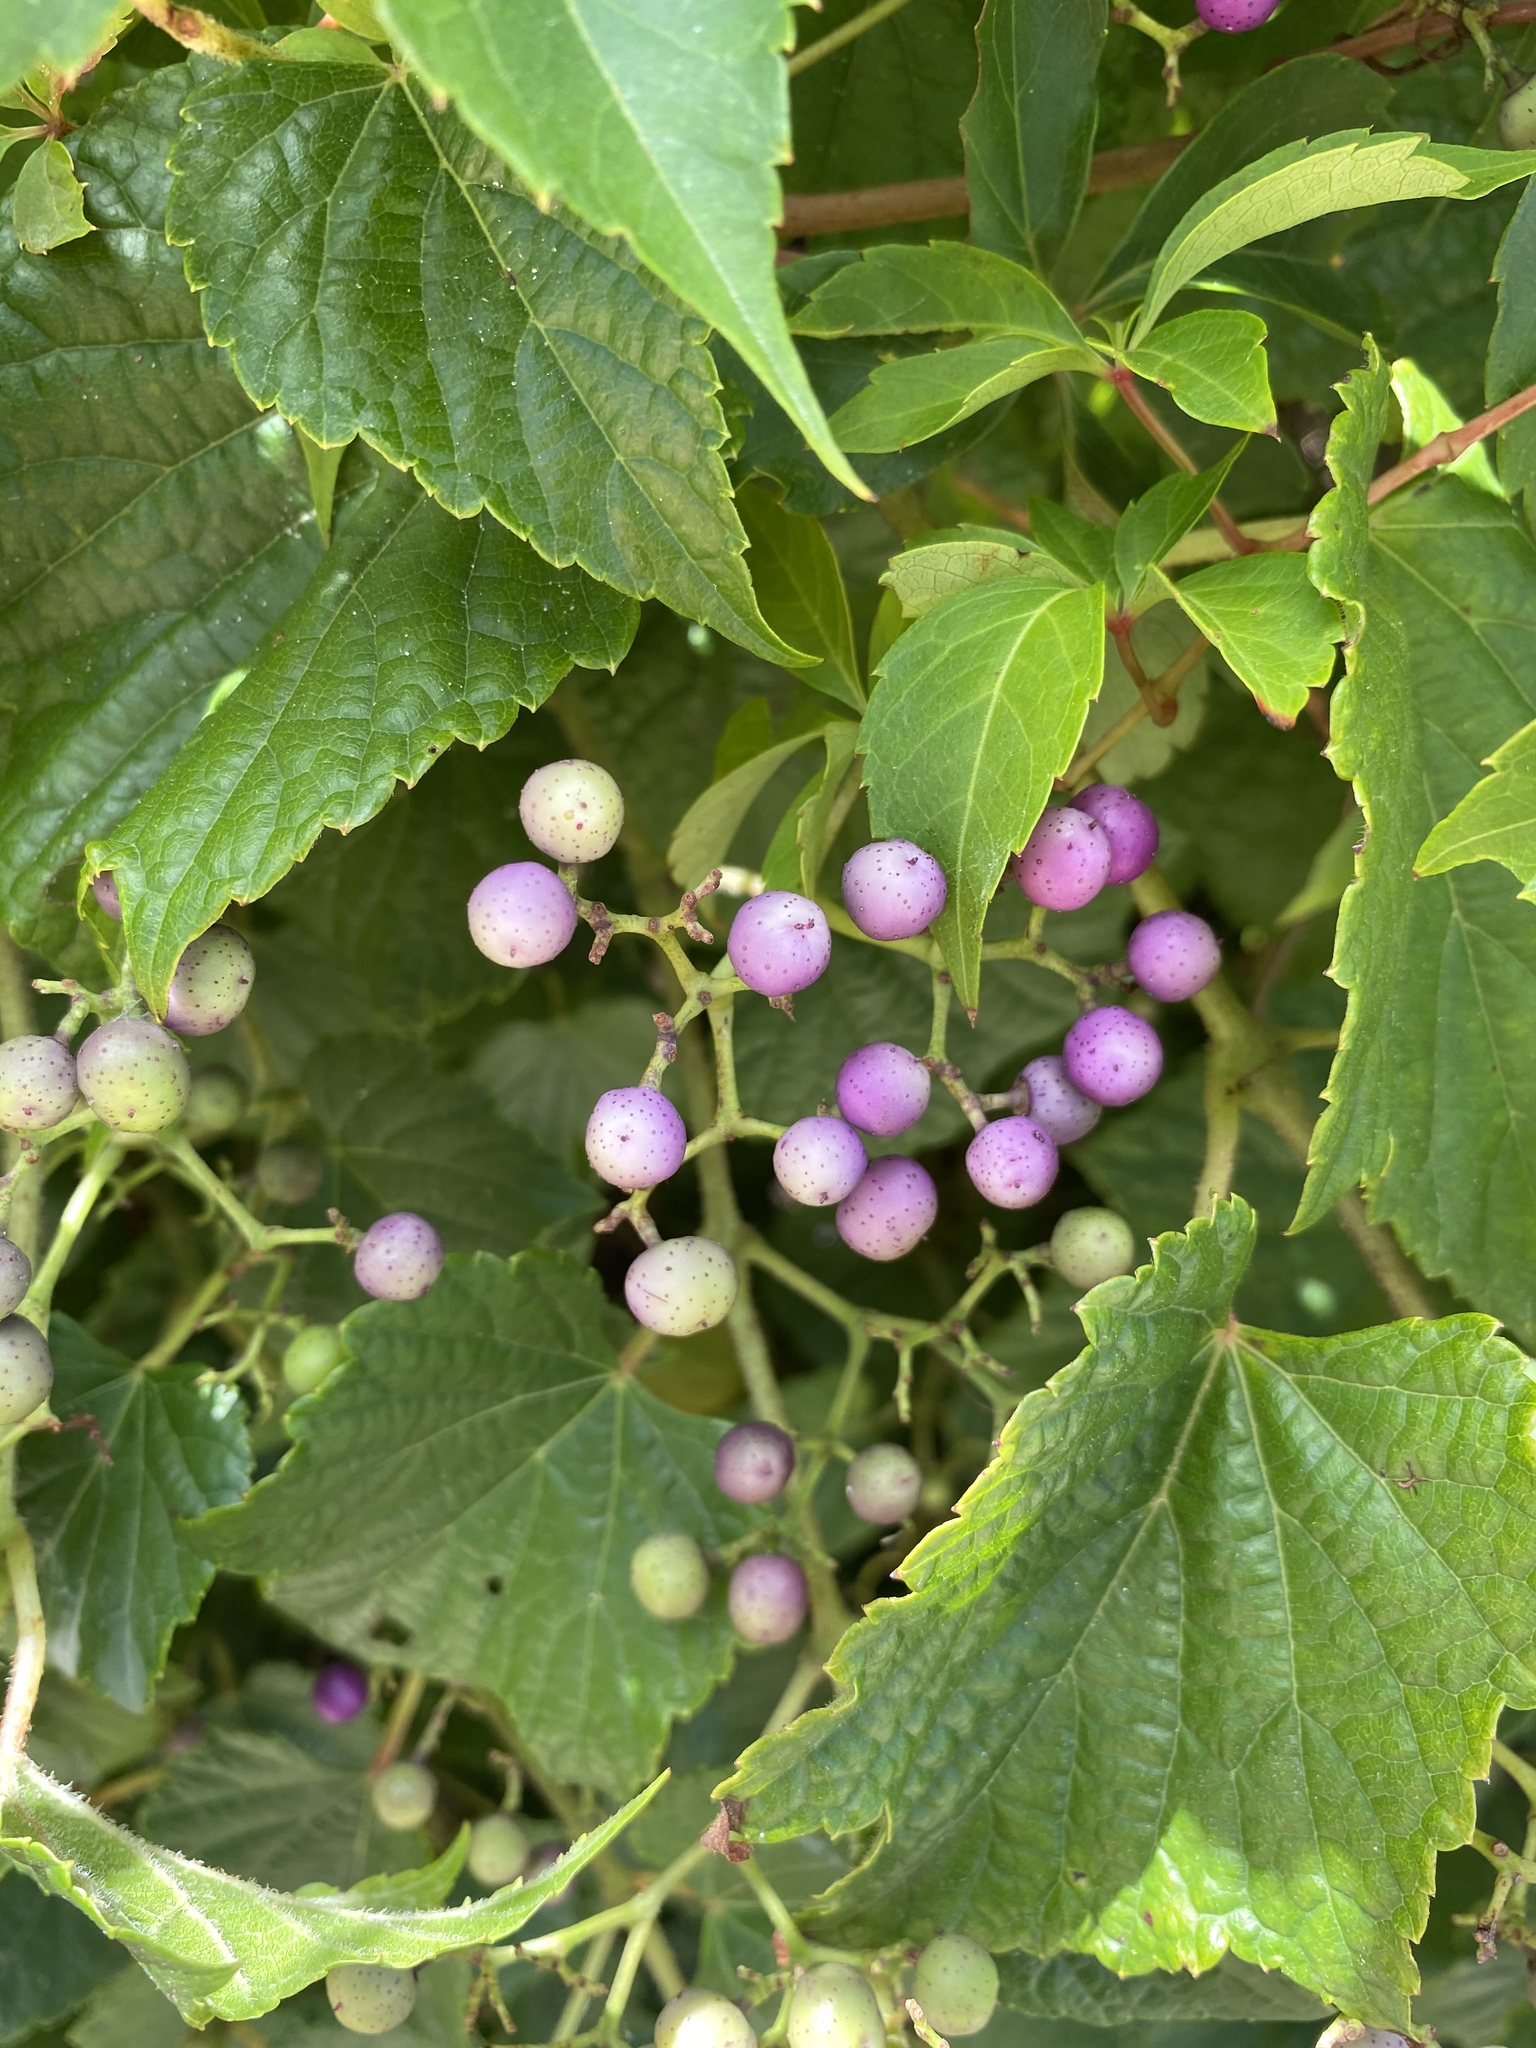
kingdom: Plantae
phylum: Tracheophyta
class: Magnoliopsida
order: Vitales
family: Vitaceae
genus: Ampelopsis
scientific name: Ampelopsis glandulosa
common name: Amur peppervine
